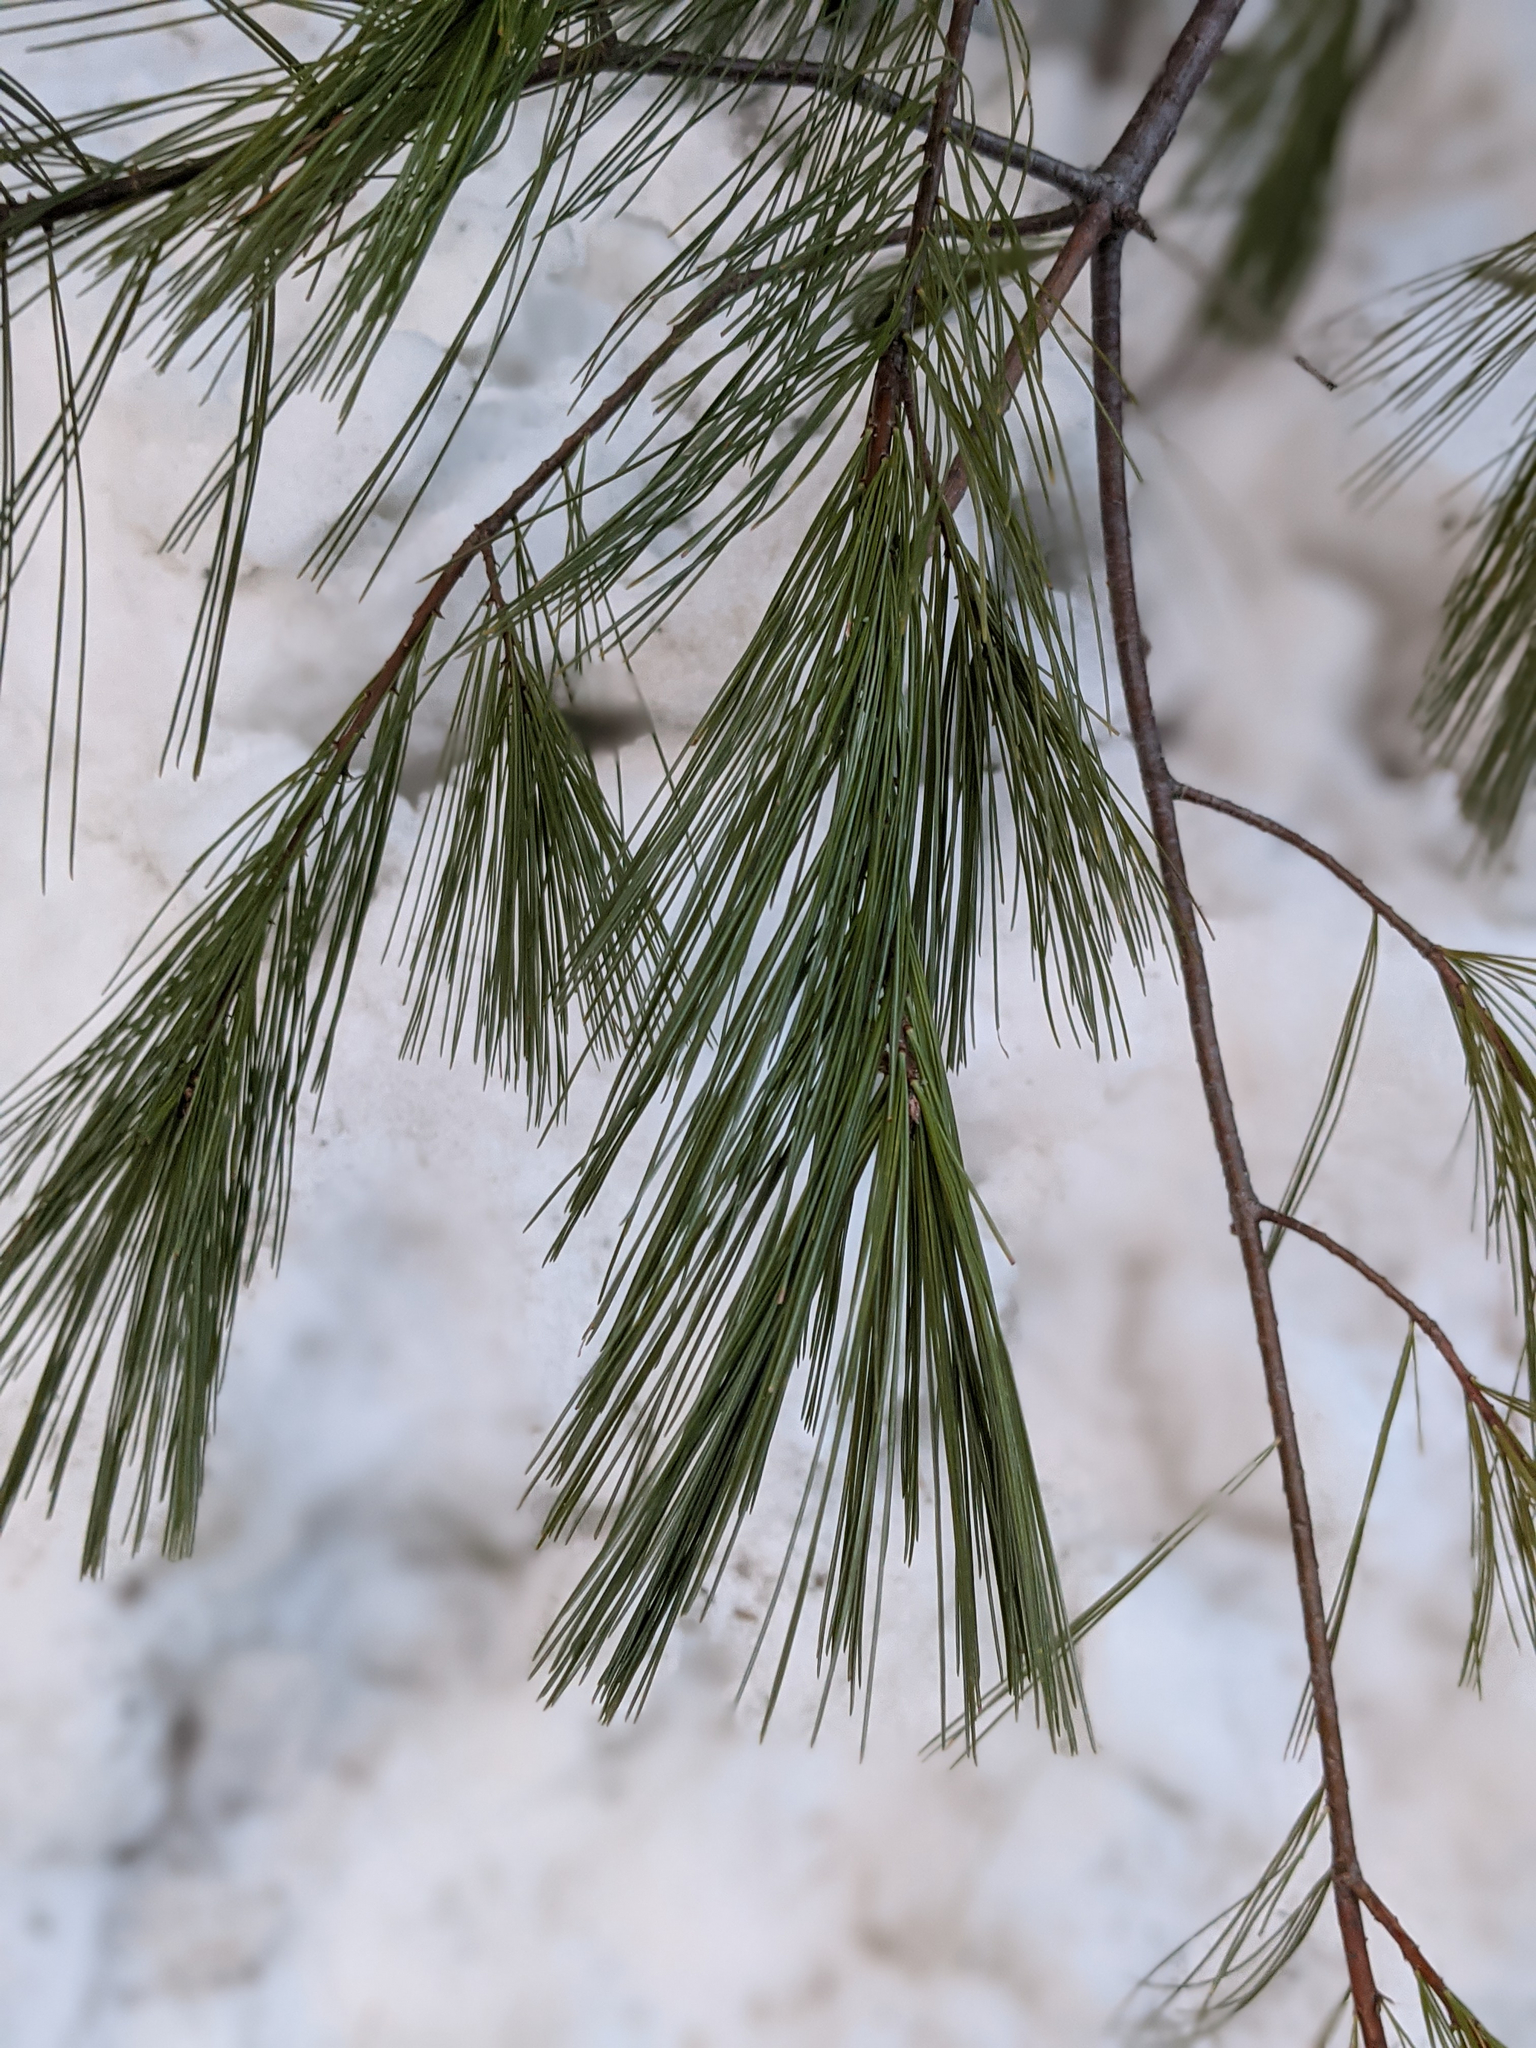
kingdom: Plantae
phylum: Tracheophyta
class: Pinopsida
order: Pinales
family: Pinaceae
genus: Pinus
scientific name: Pinus strobus
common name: Weymouth pine
